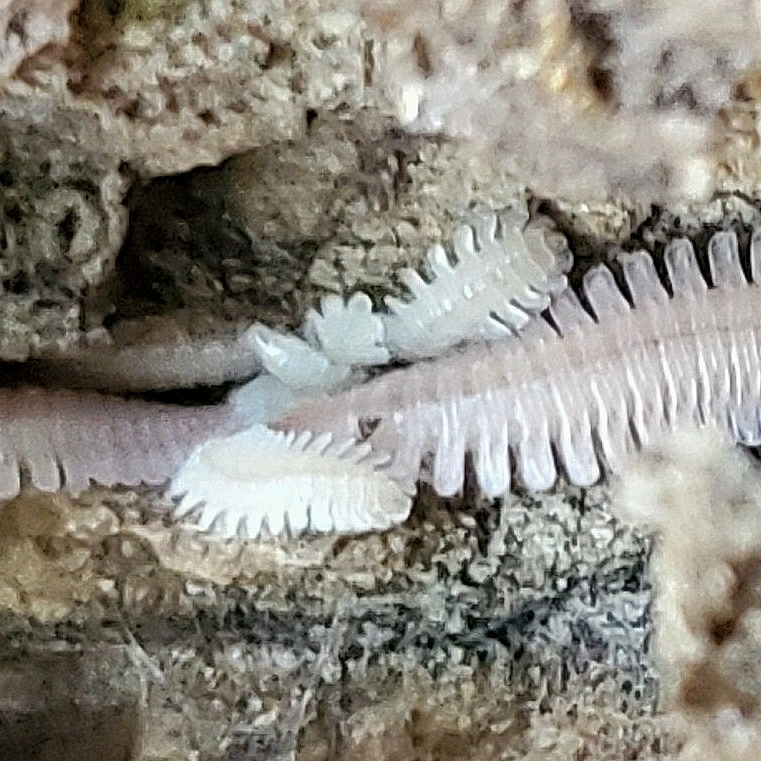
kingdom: Animalia
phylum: Arthropoda
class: Diplopoda
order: Platydesmida
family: Andrognathidae
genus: Brachycybe
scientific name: Brachycybe lecontii
